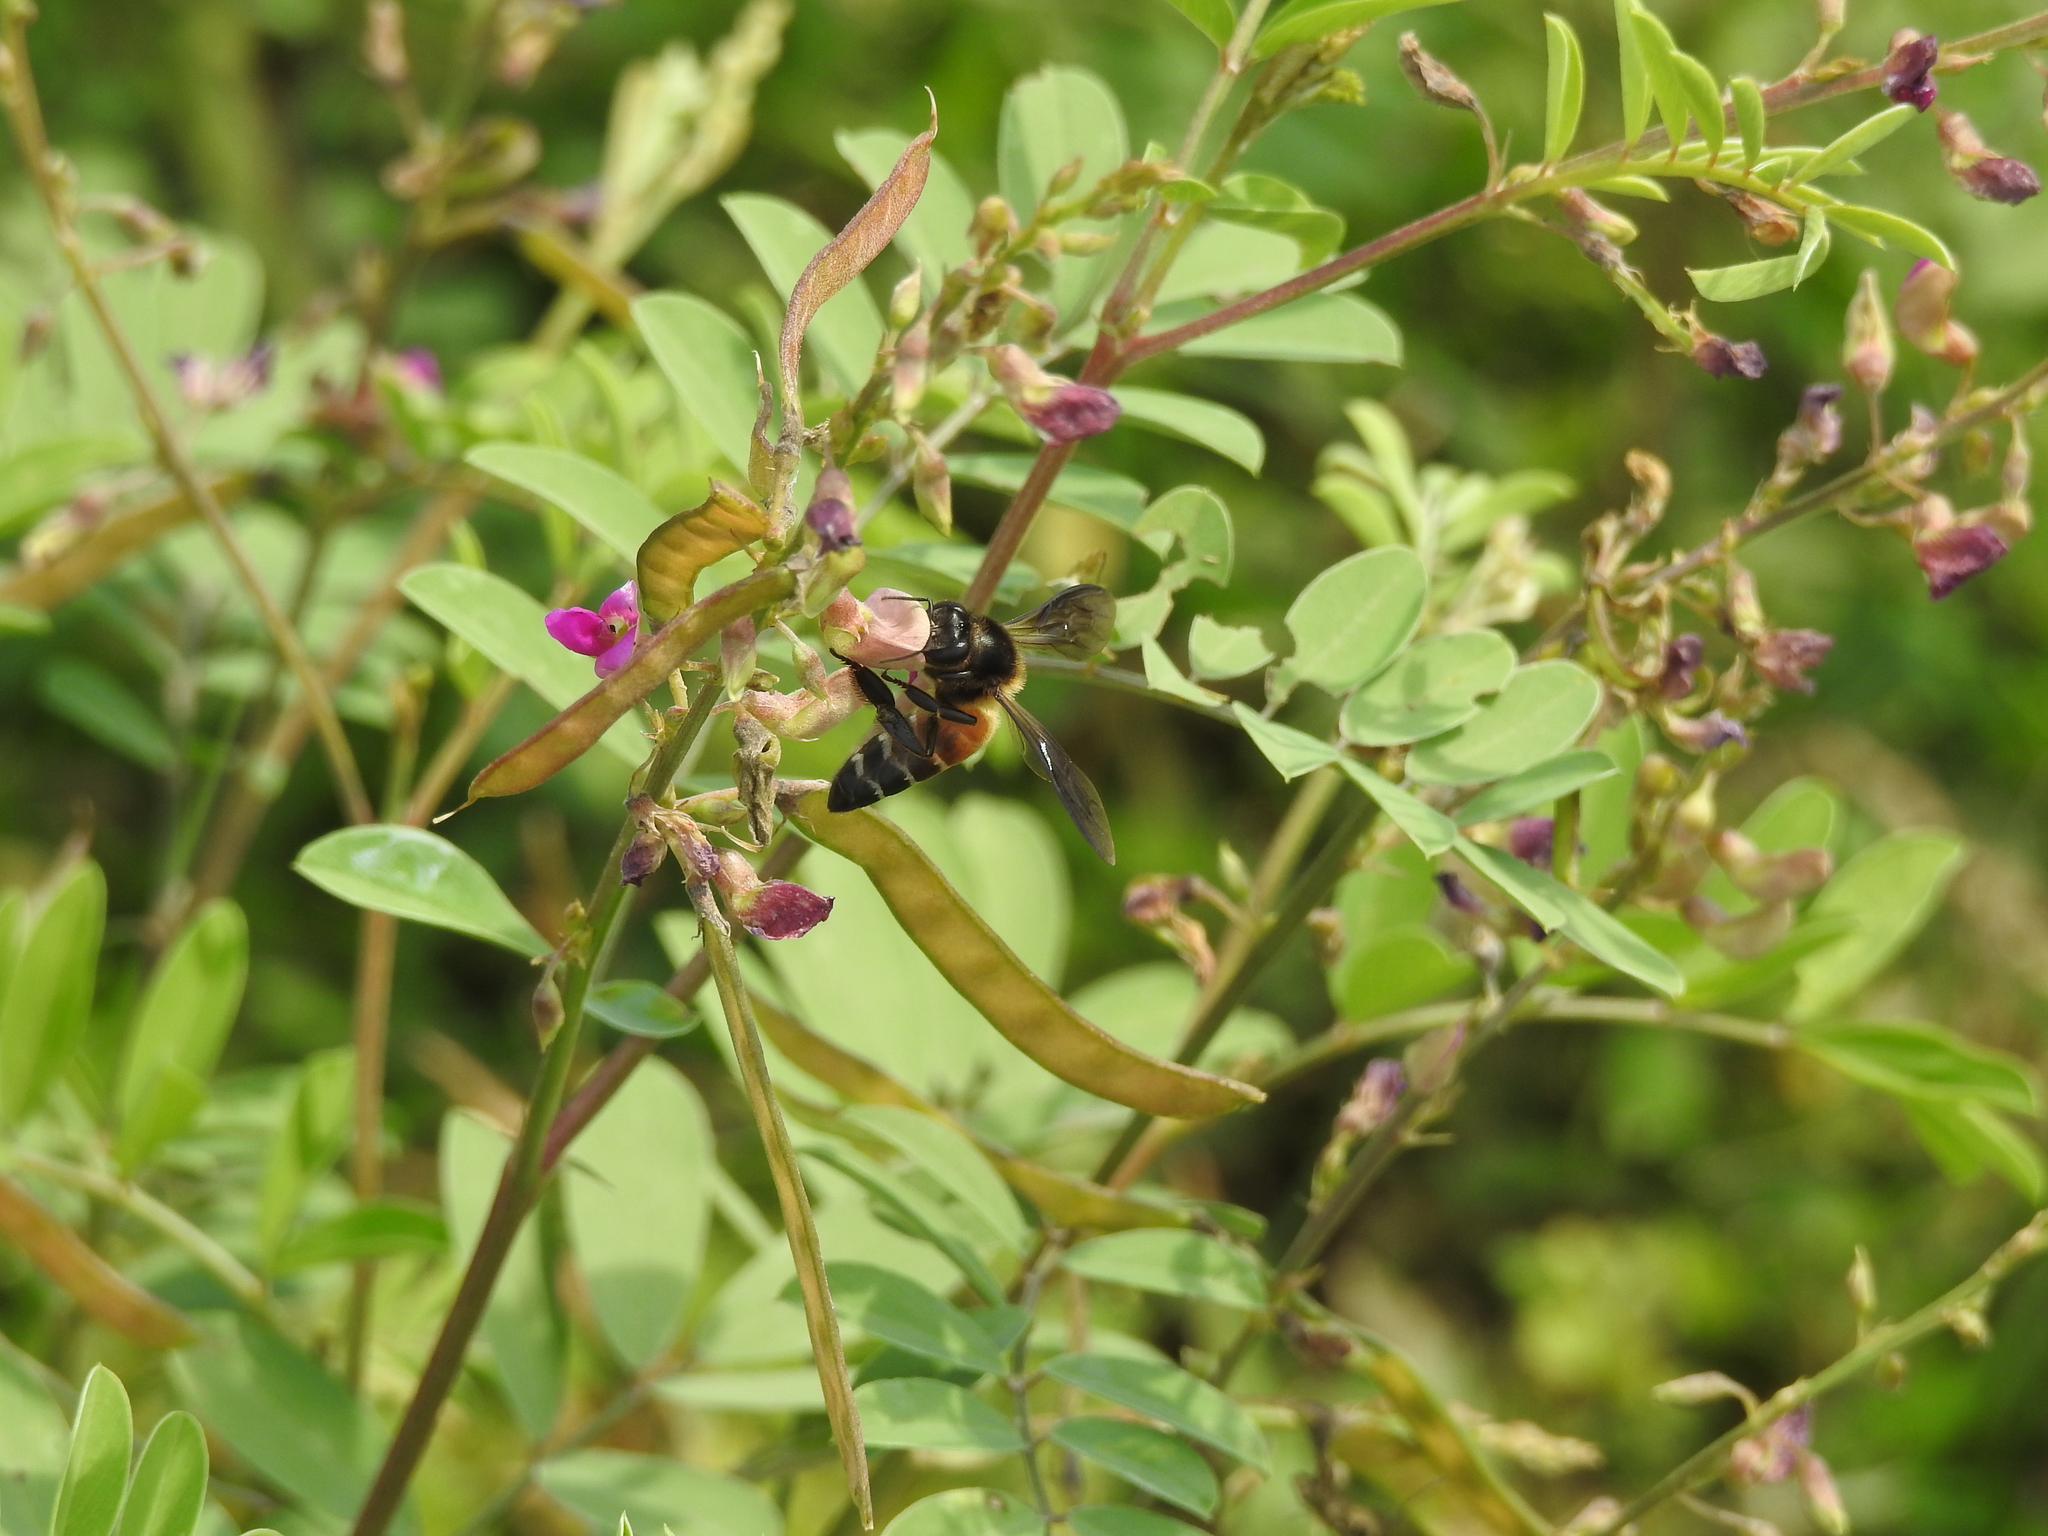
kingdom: Animalia
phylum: Arthropoda
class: Insecta
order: Hymenoptera
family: Apidae
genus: Apis
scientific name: Apis dorsata
